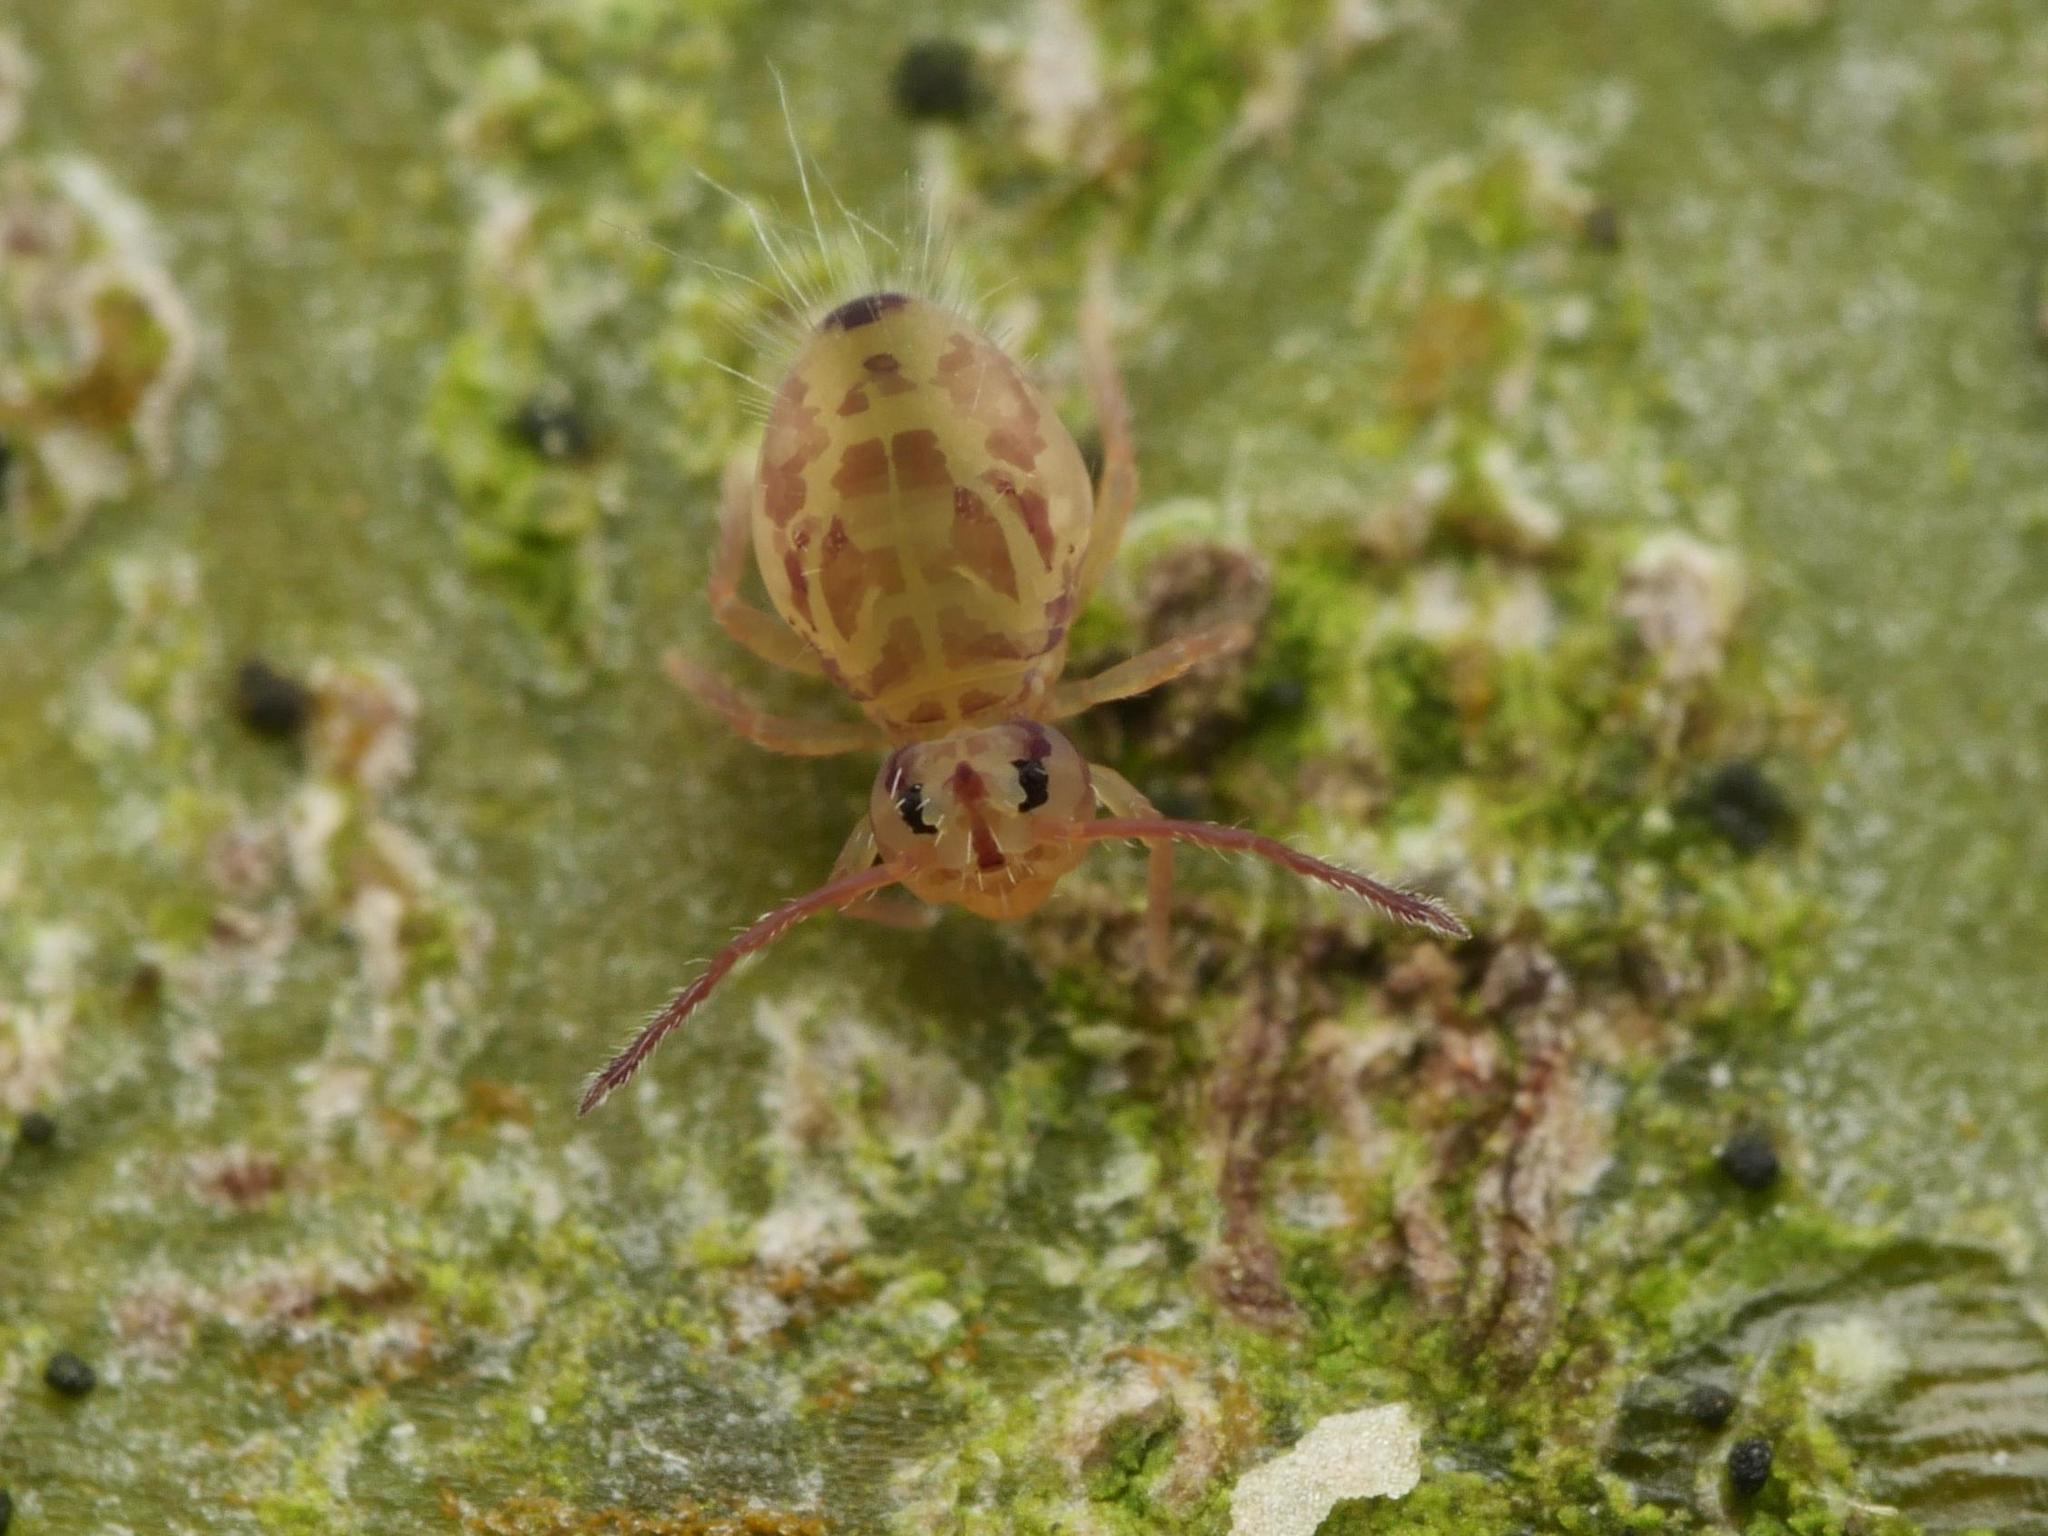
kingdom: Animalia
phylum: Arthropoda
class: Collembola
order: Symphypleona
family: Dicyrtomidae
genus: Dicyrtomina
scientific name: Dicyrtomina ornata
